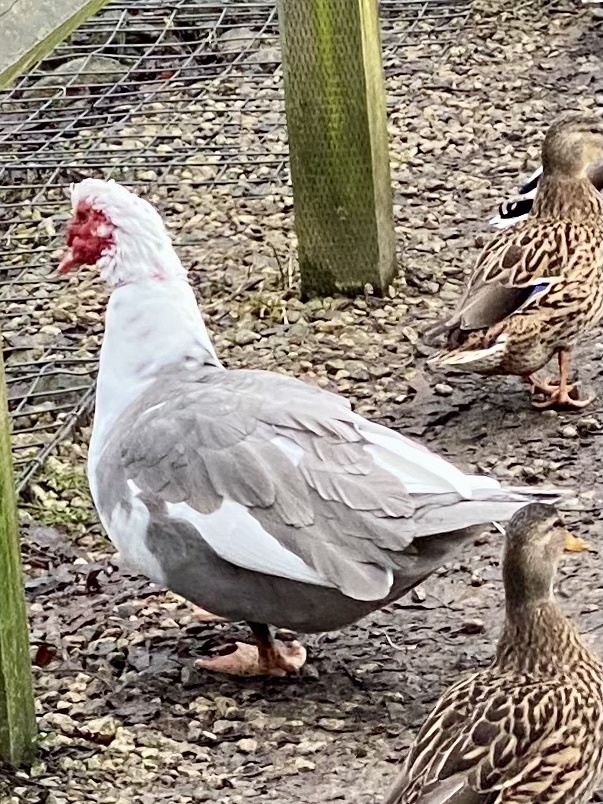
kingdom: Animalia
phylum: Chordata
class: Aves
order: Anseriformes
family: Anatidae
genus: Cairina
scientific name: Cairina moschata
